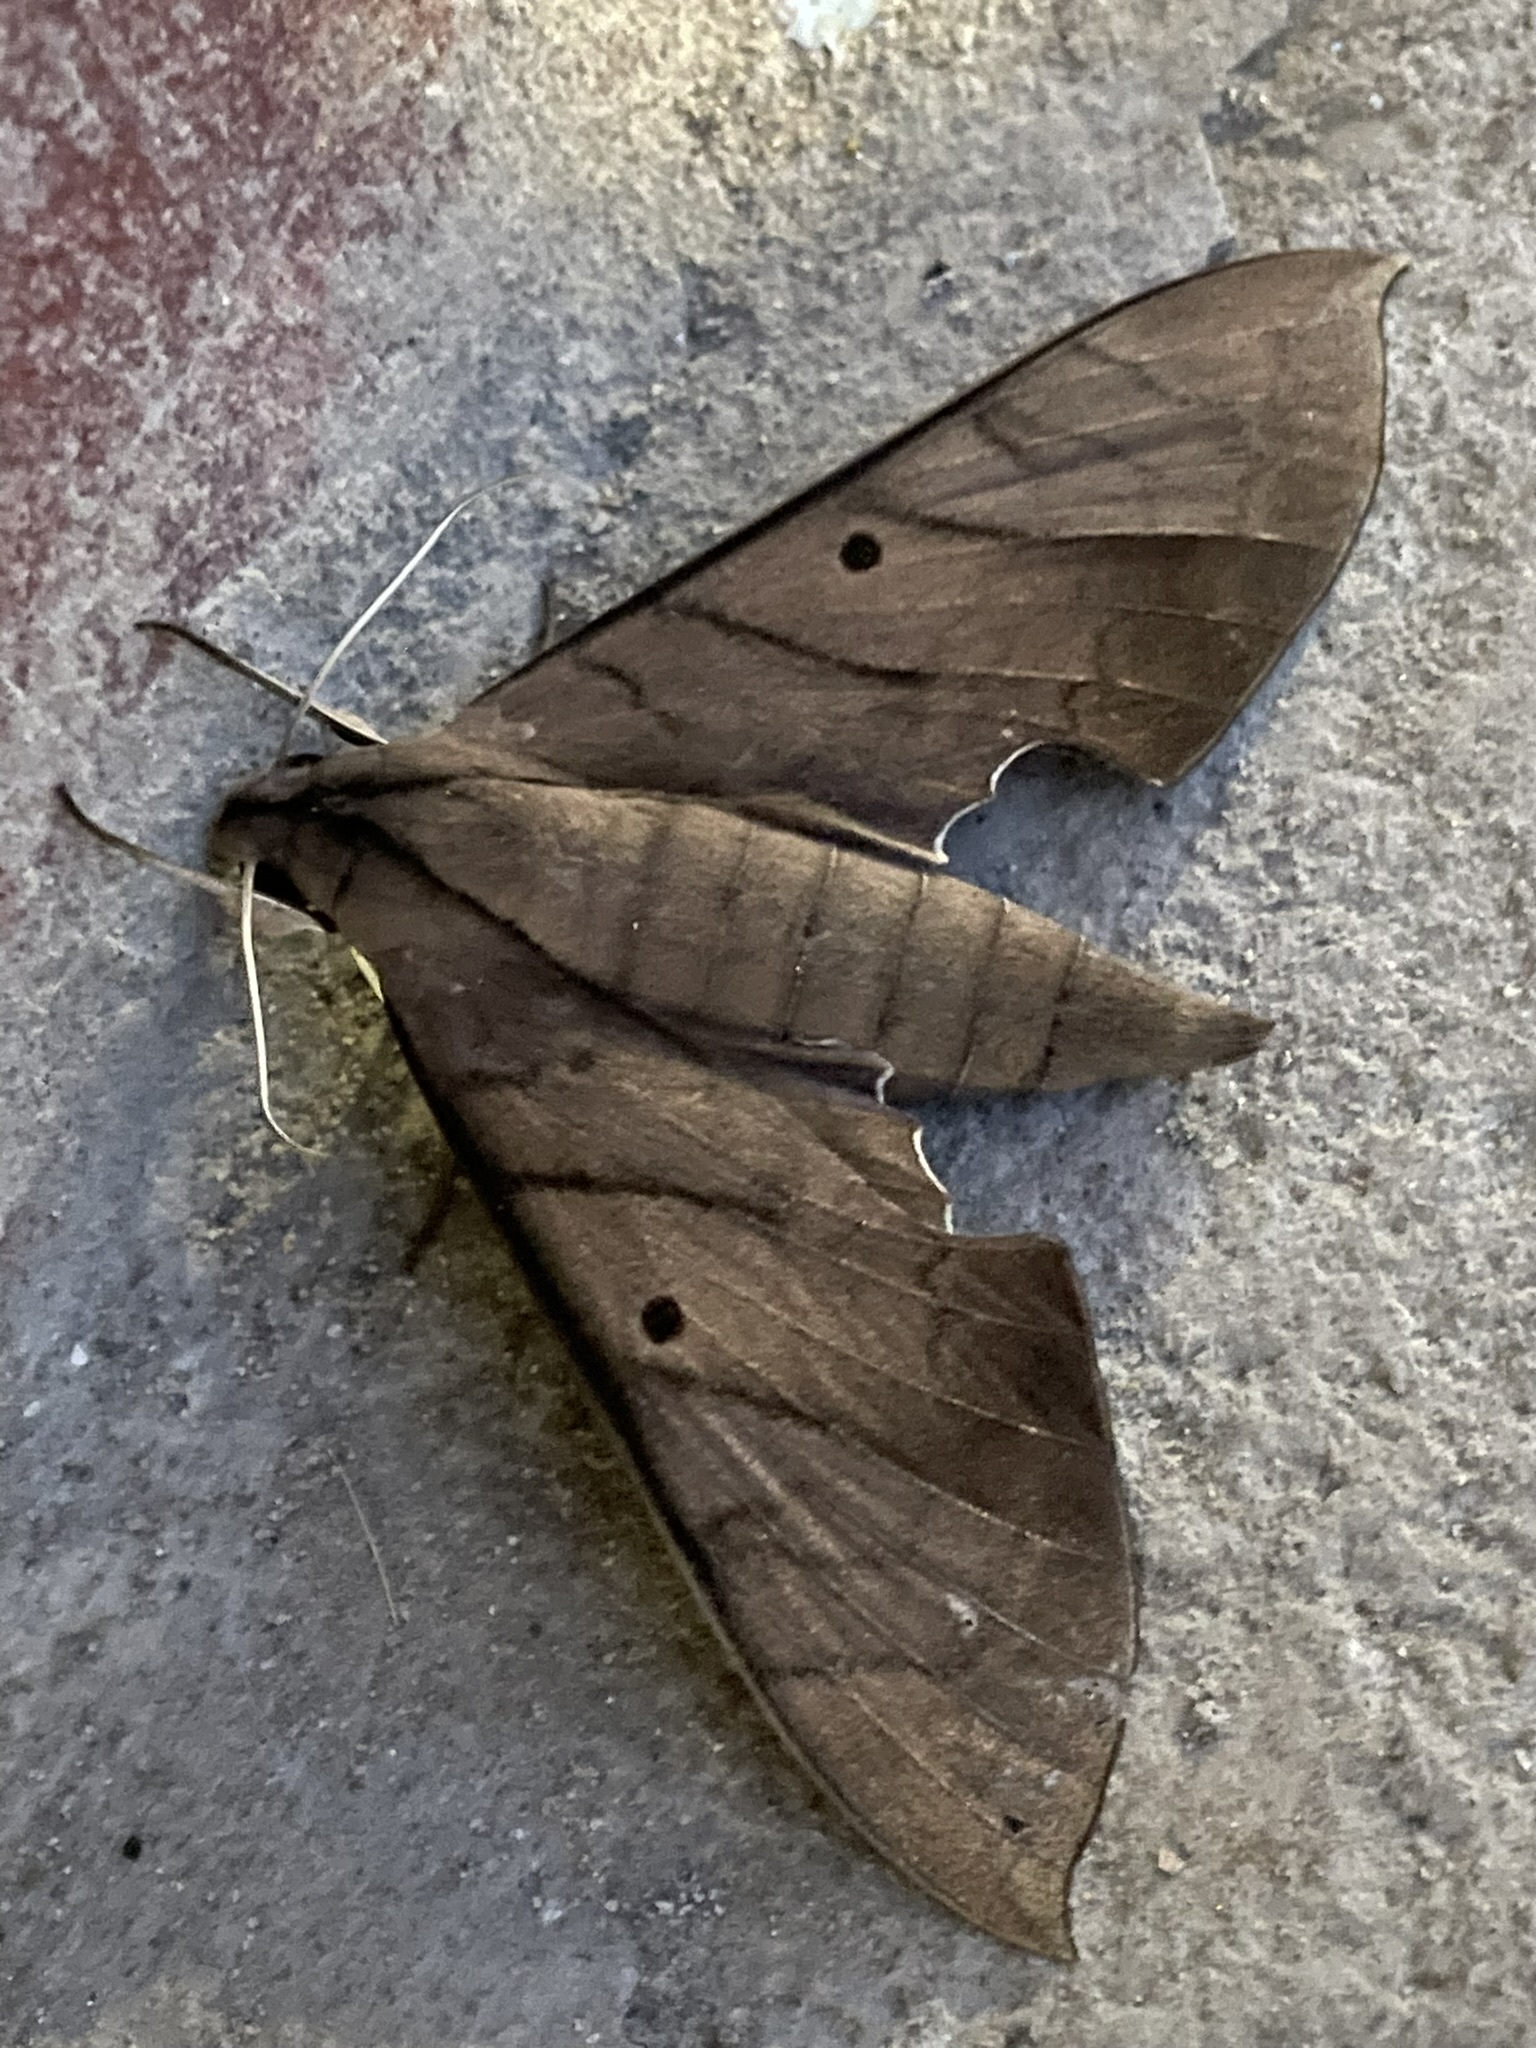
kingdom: Animalia
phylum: Arthropoda
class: Insecta
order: Lepidoptera
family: Sphingidae
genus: Pachylia
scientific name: Pachylia darceta
